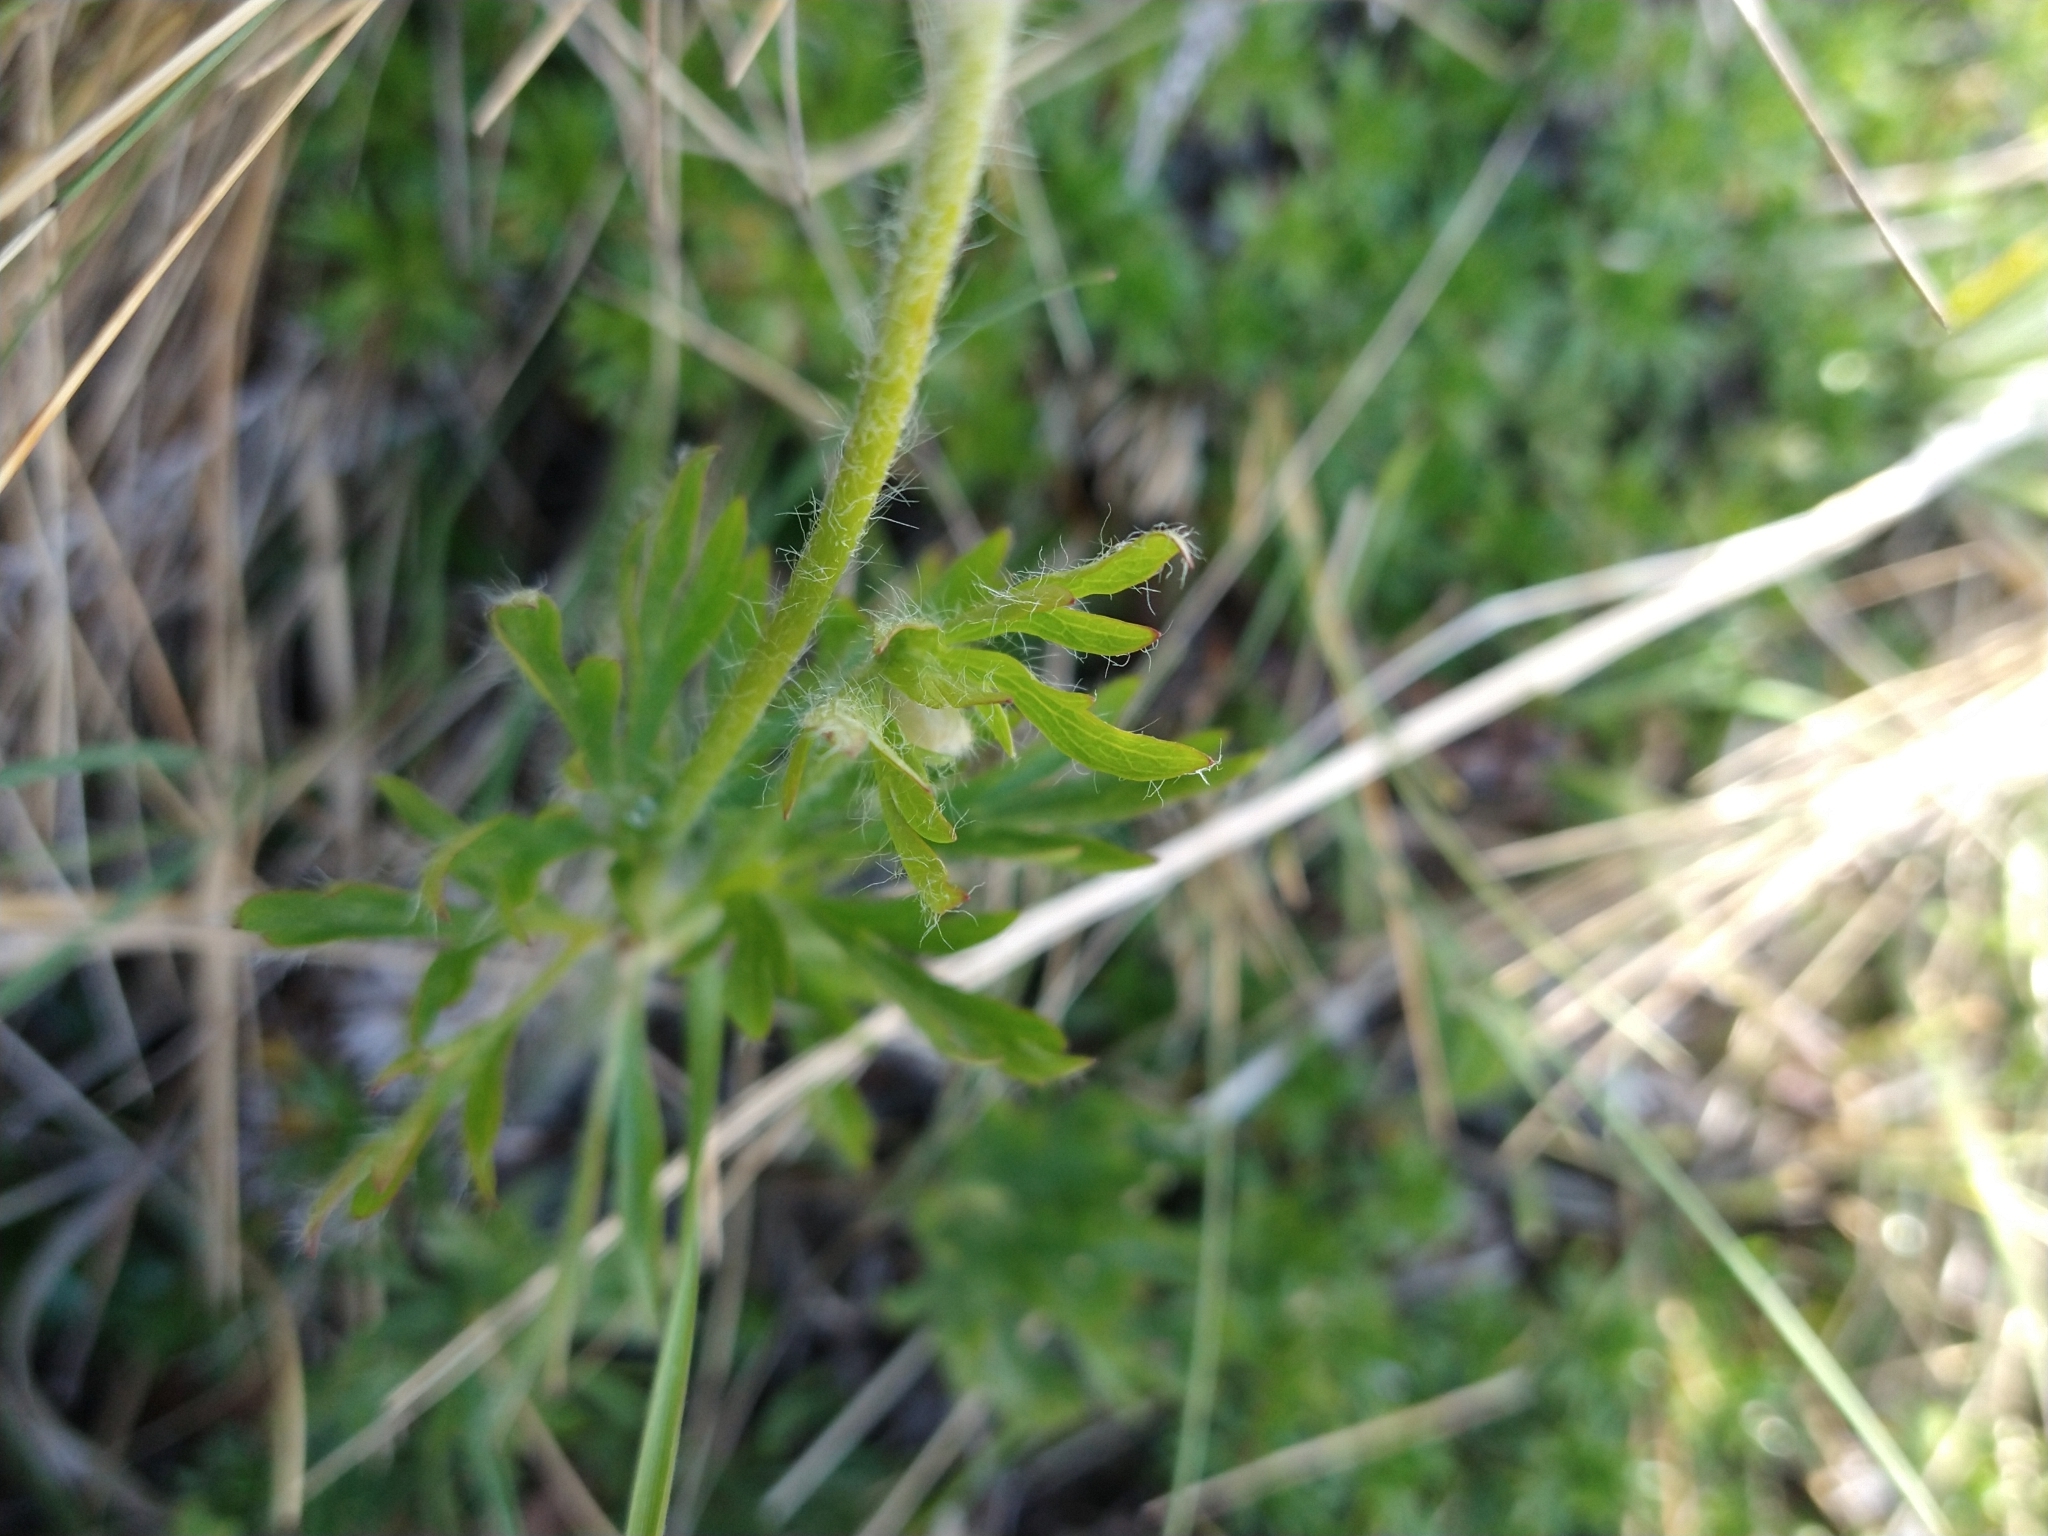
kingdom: Plantae
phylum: Tracheophyta
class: Magnoliopsida
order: Ranunculales
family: Ranunculaceae
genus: Anemone
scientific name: Anemone multifida
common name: Bird's-foot anemone
